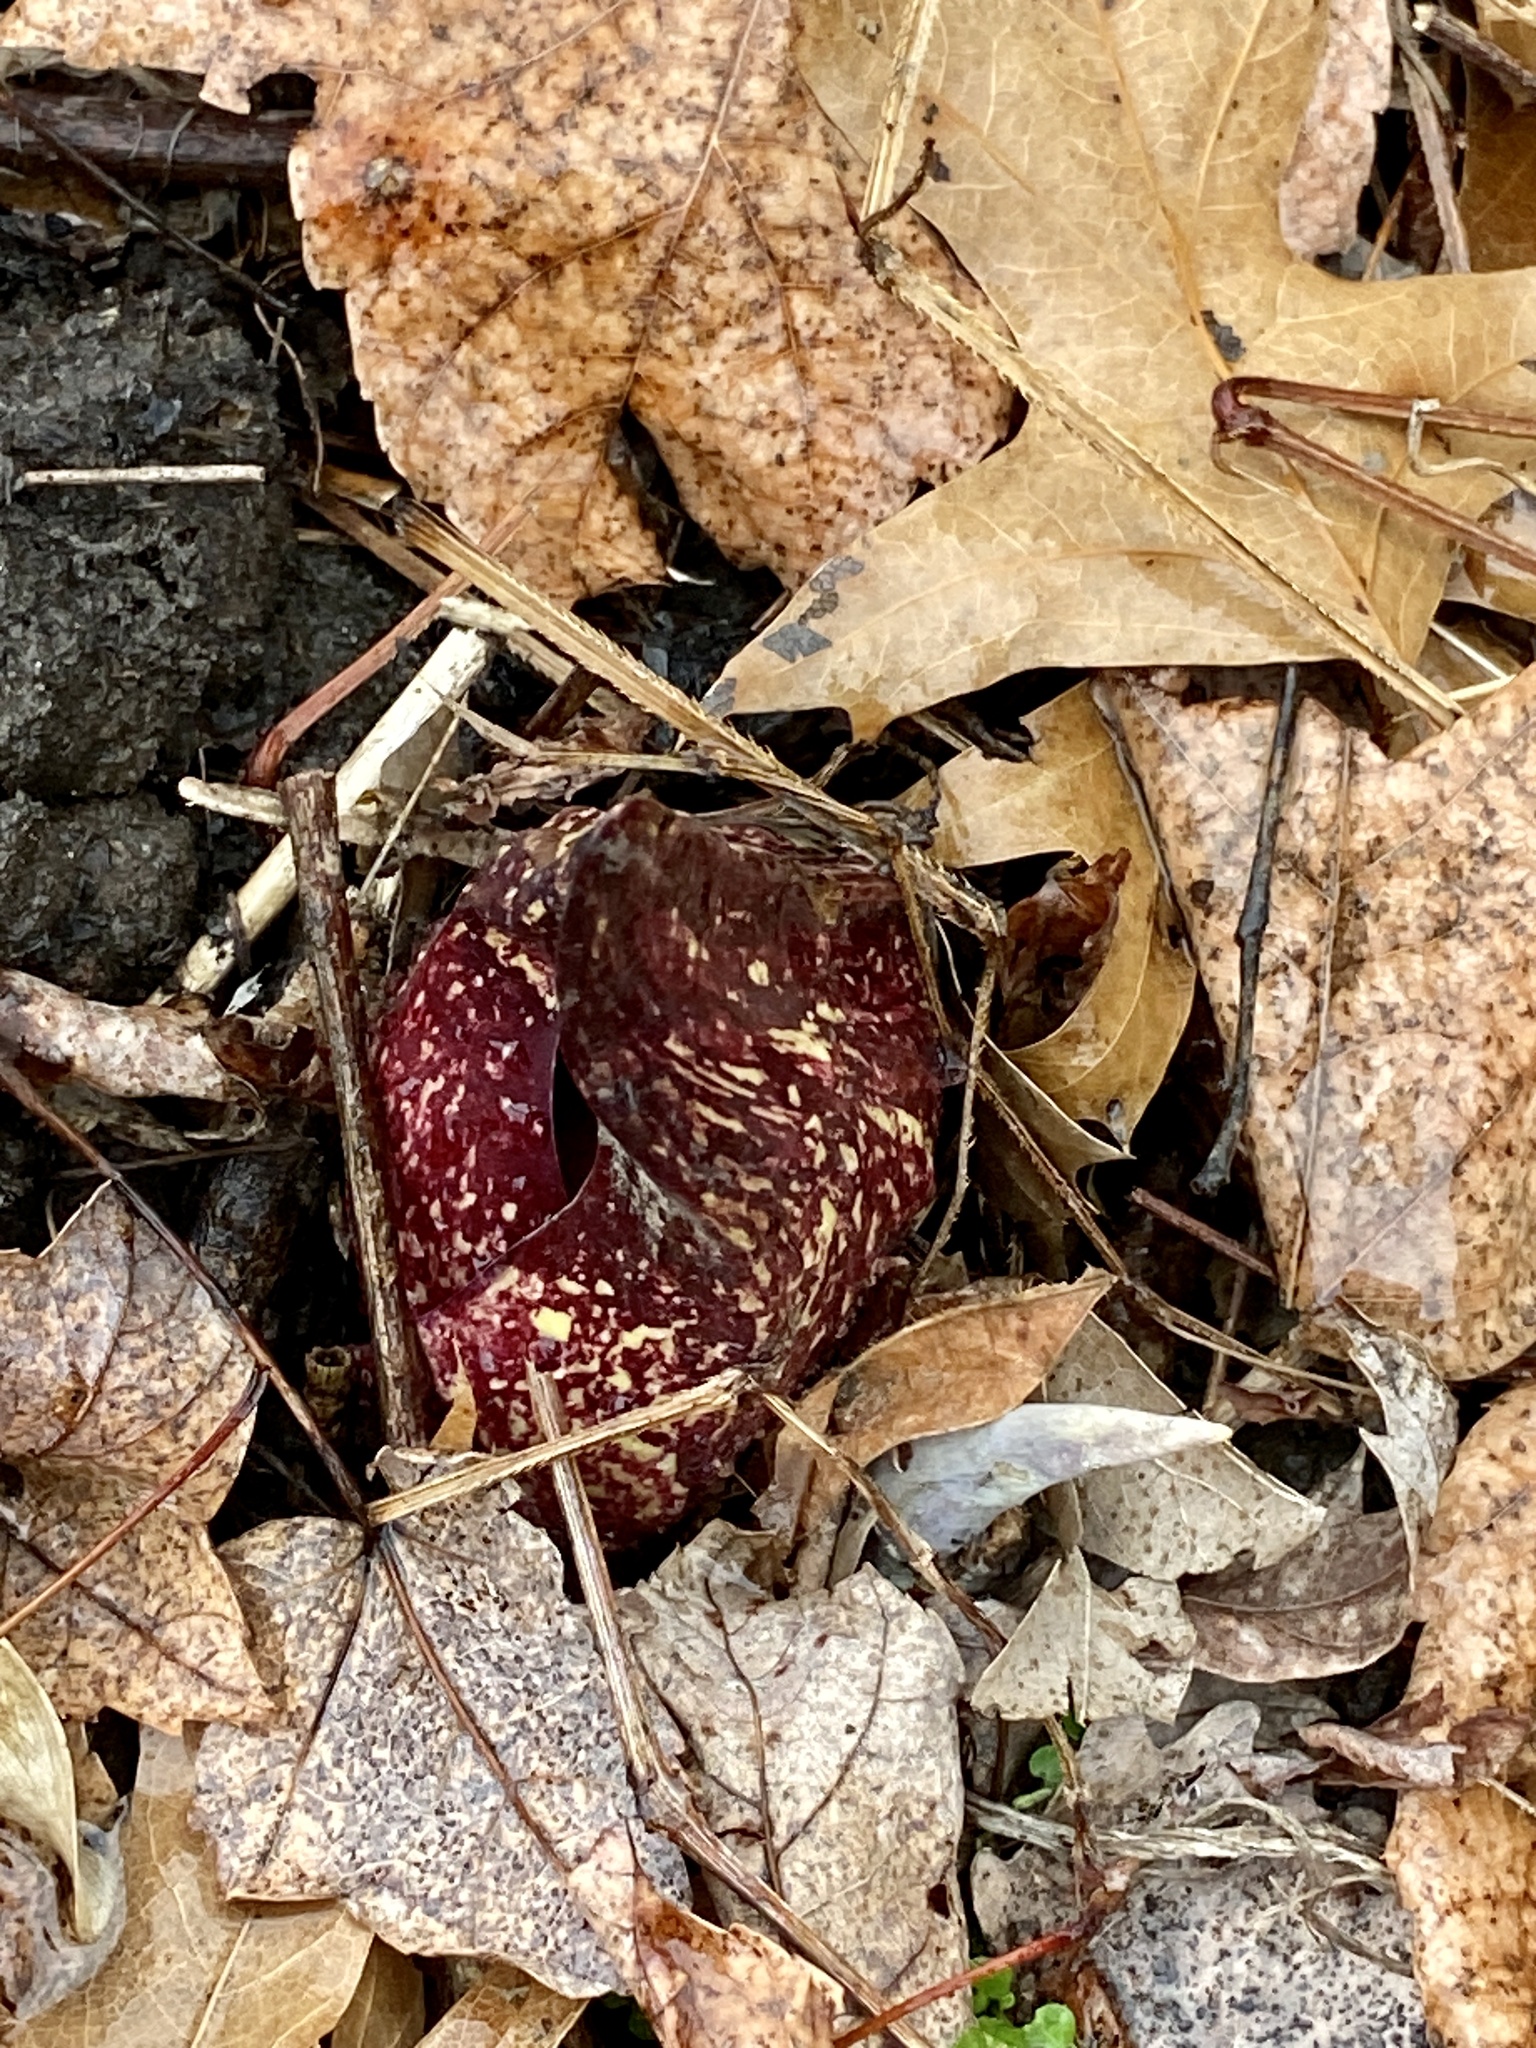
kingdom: Plantae
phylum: Tracheophyta
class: Liliopsida
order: Alismatales
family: Araceae
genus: Symplocarpus
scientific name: Symplocarpus foetidus
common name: Eastern skunk cabbage
